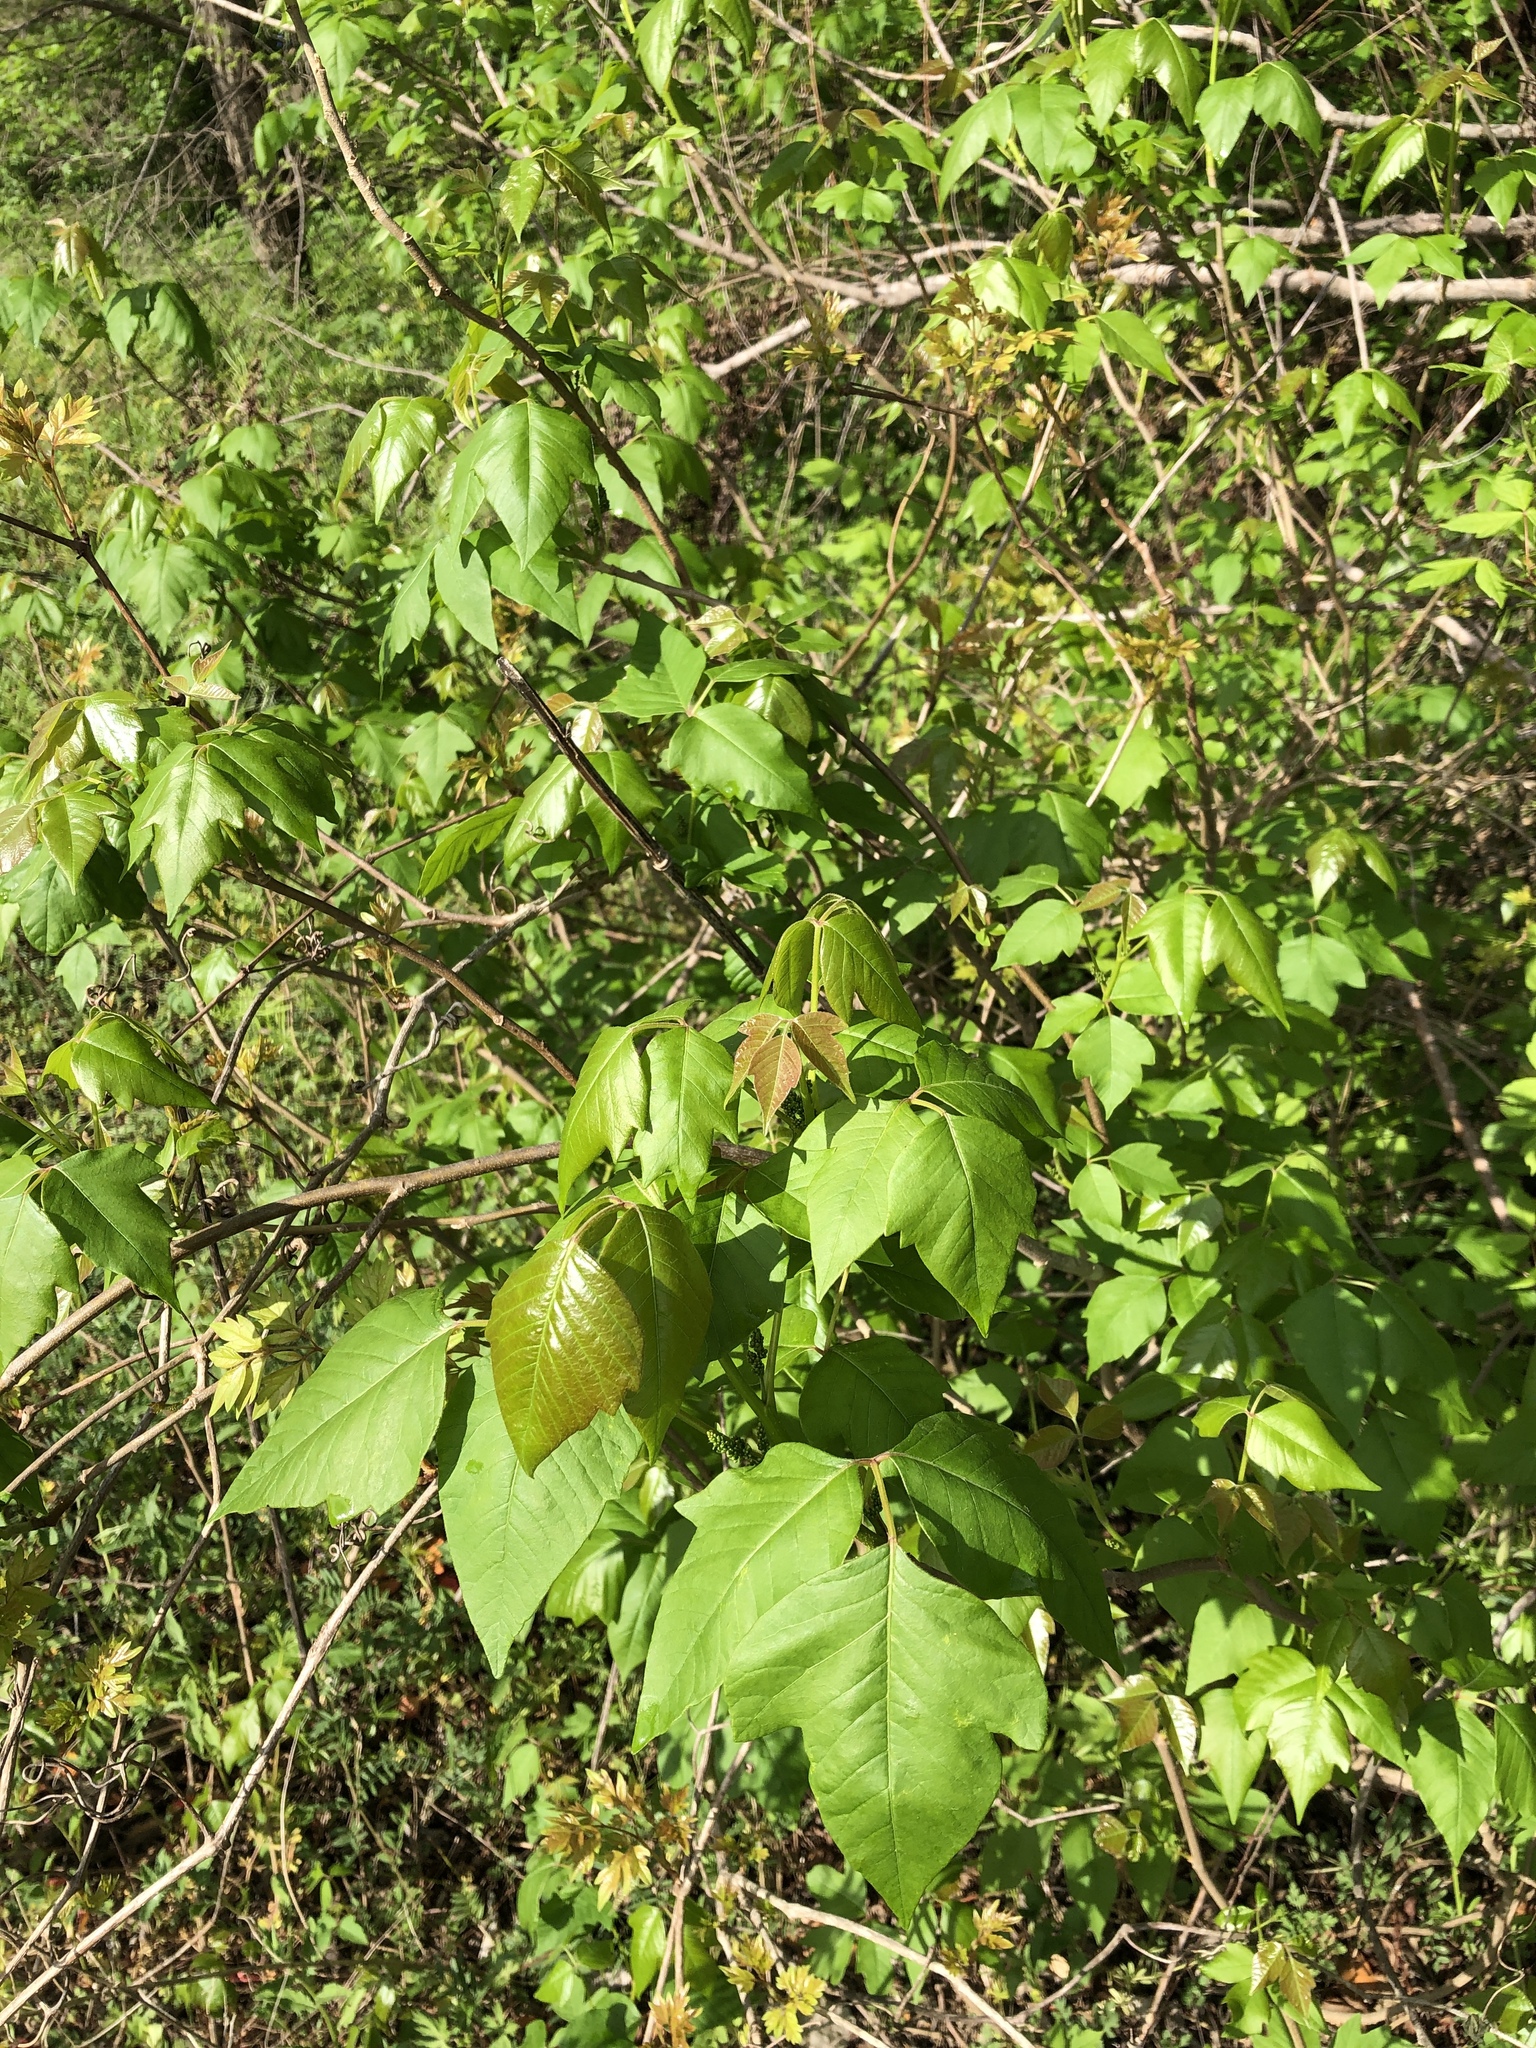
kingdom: Plantae
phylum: Tracheophyta
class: Magnoliopsida
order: Sapindales
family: Anacardiaceae
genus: Toxicodendron
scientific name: Toxicodendron radicans
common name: Poison ivy
